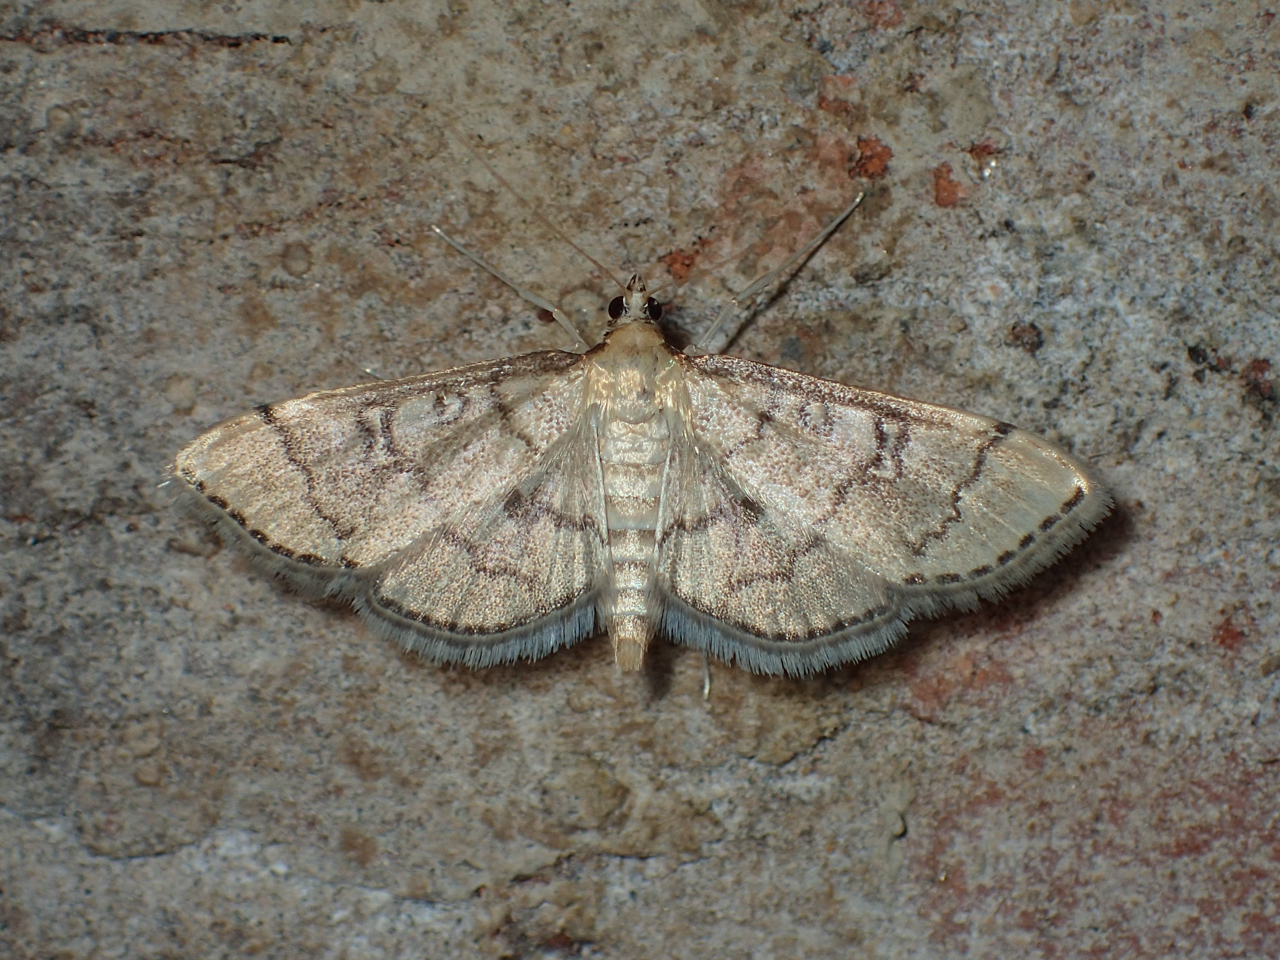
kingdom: Animalia
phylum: Arthropoda
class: Insecta
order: Lepidoptera
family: Crambidae
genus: Lamprosema
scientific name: Lamprosema Blepharomastix ranalis
